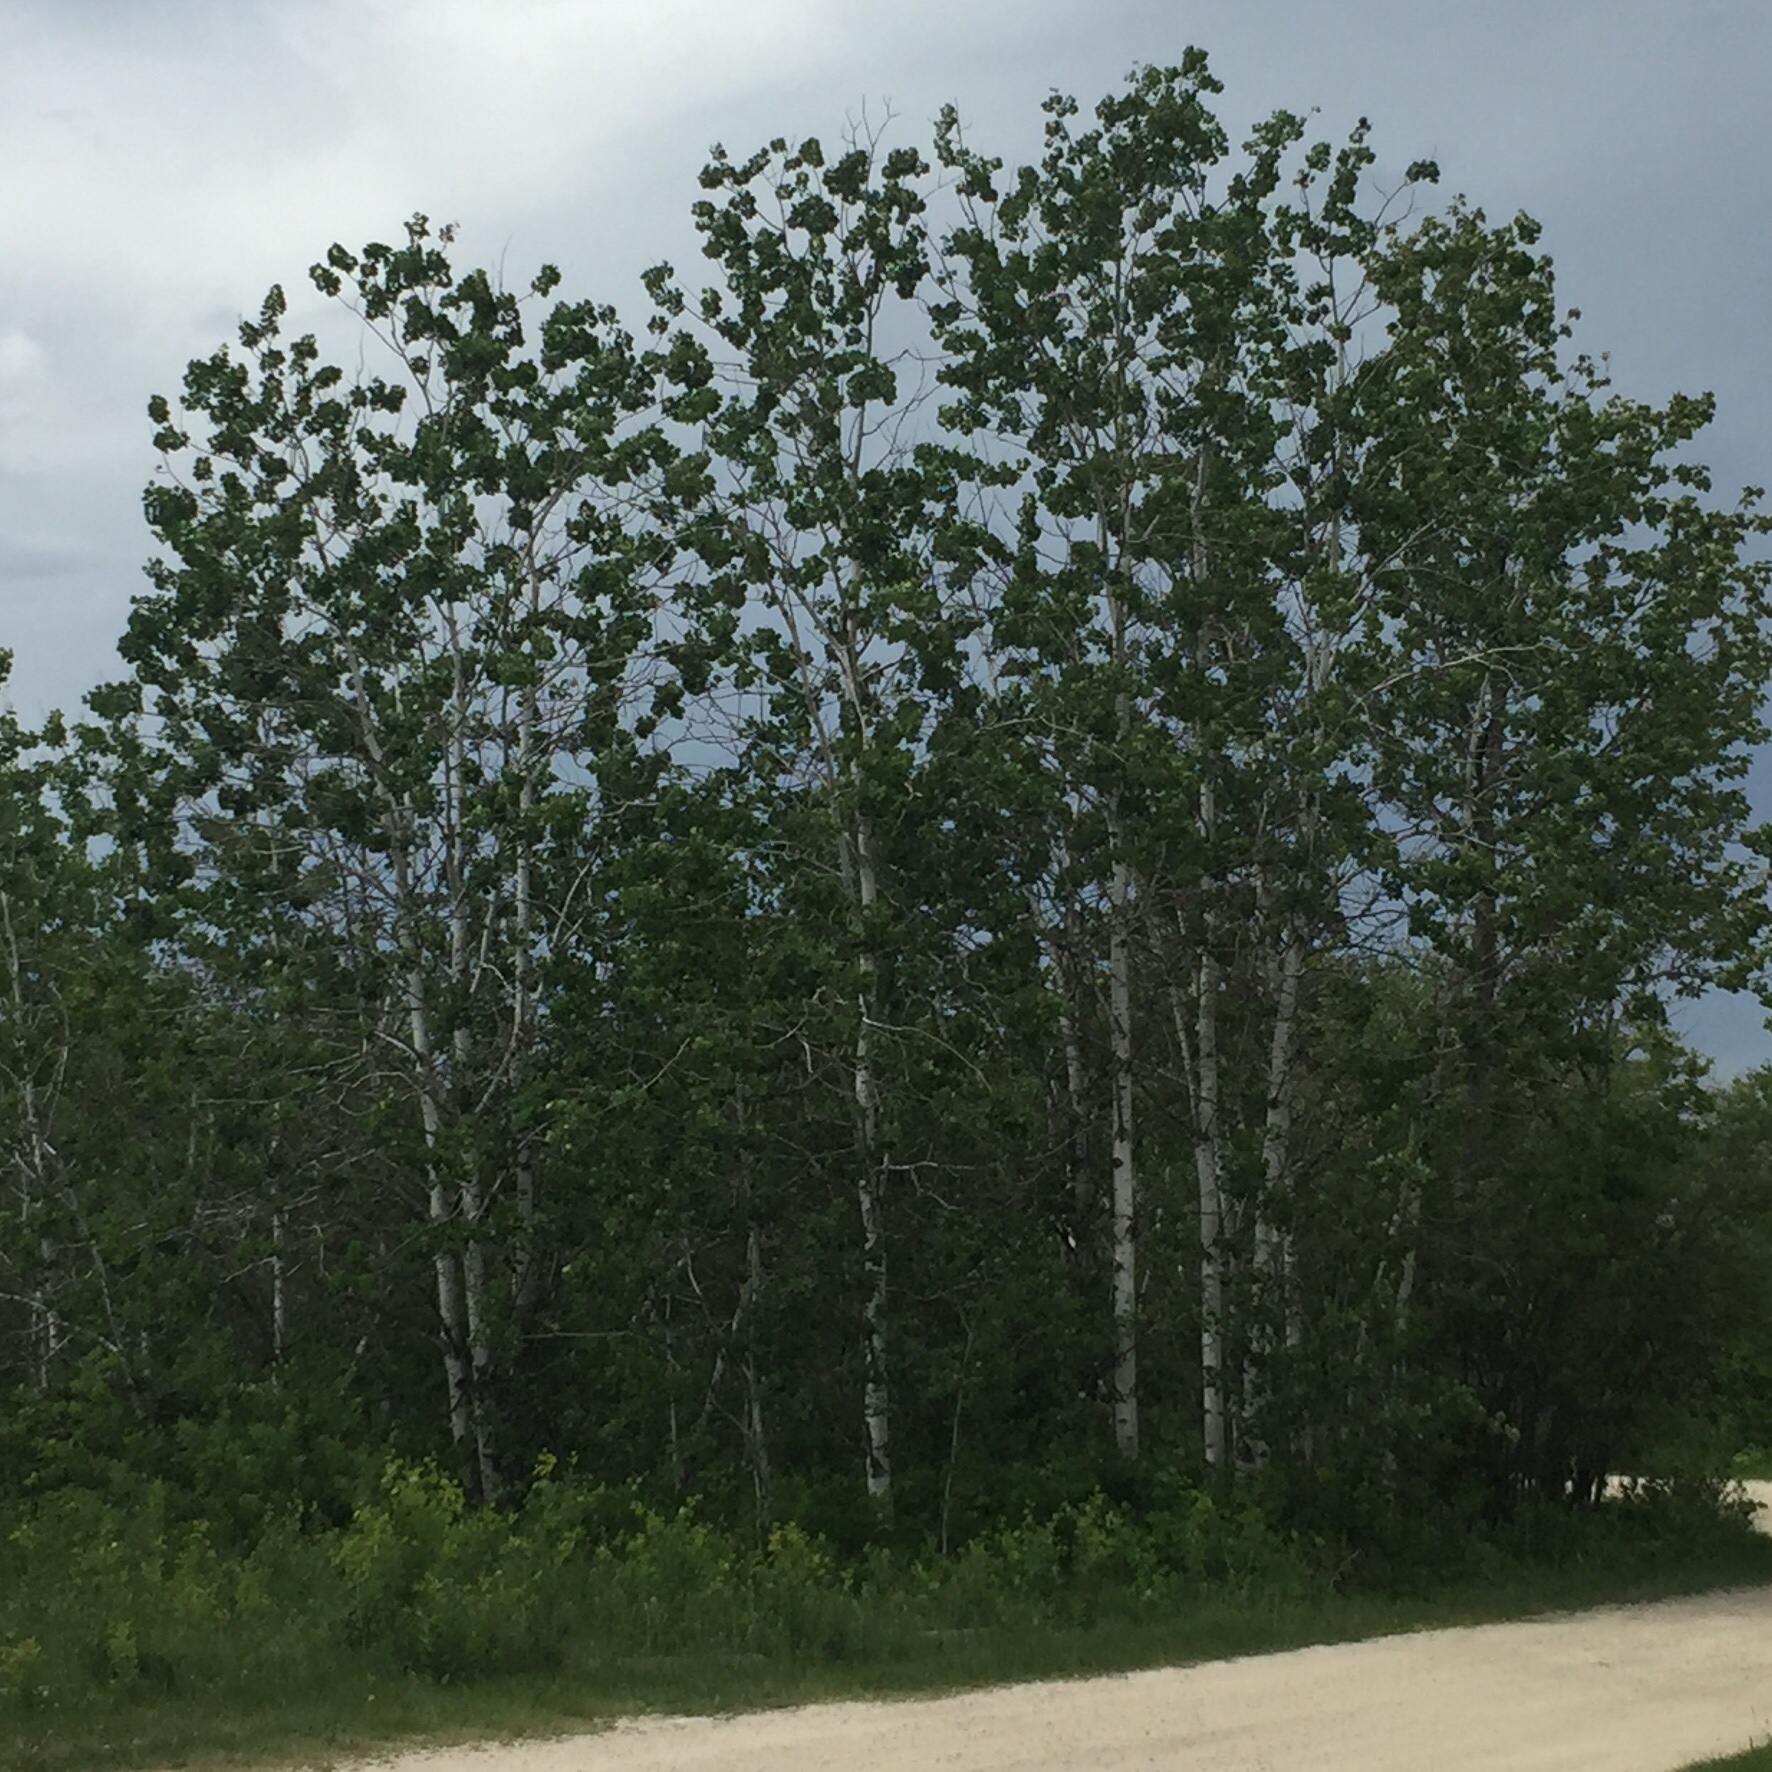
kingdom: Plantae
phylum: Tracheophyta
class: Magnoliopsida
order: Malpighiales
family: Salicaceae
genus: Populus
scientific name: Populus tremuloides
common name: Quaking aspen
